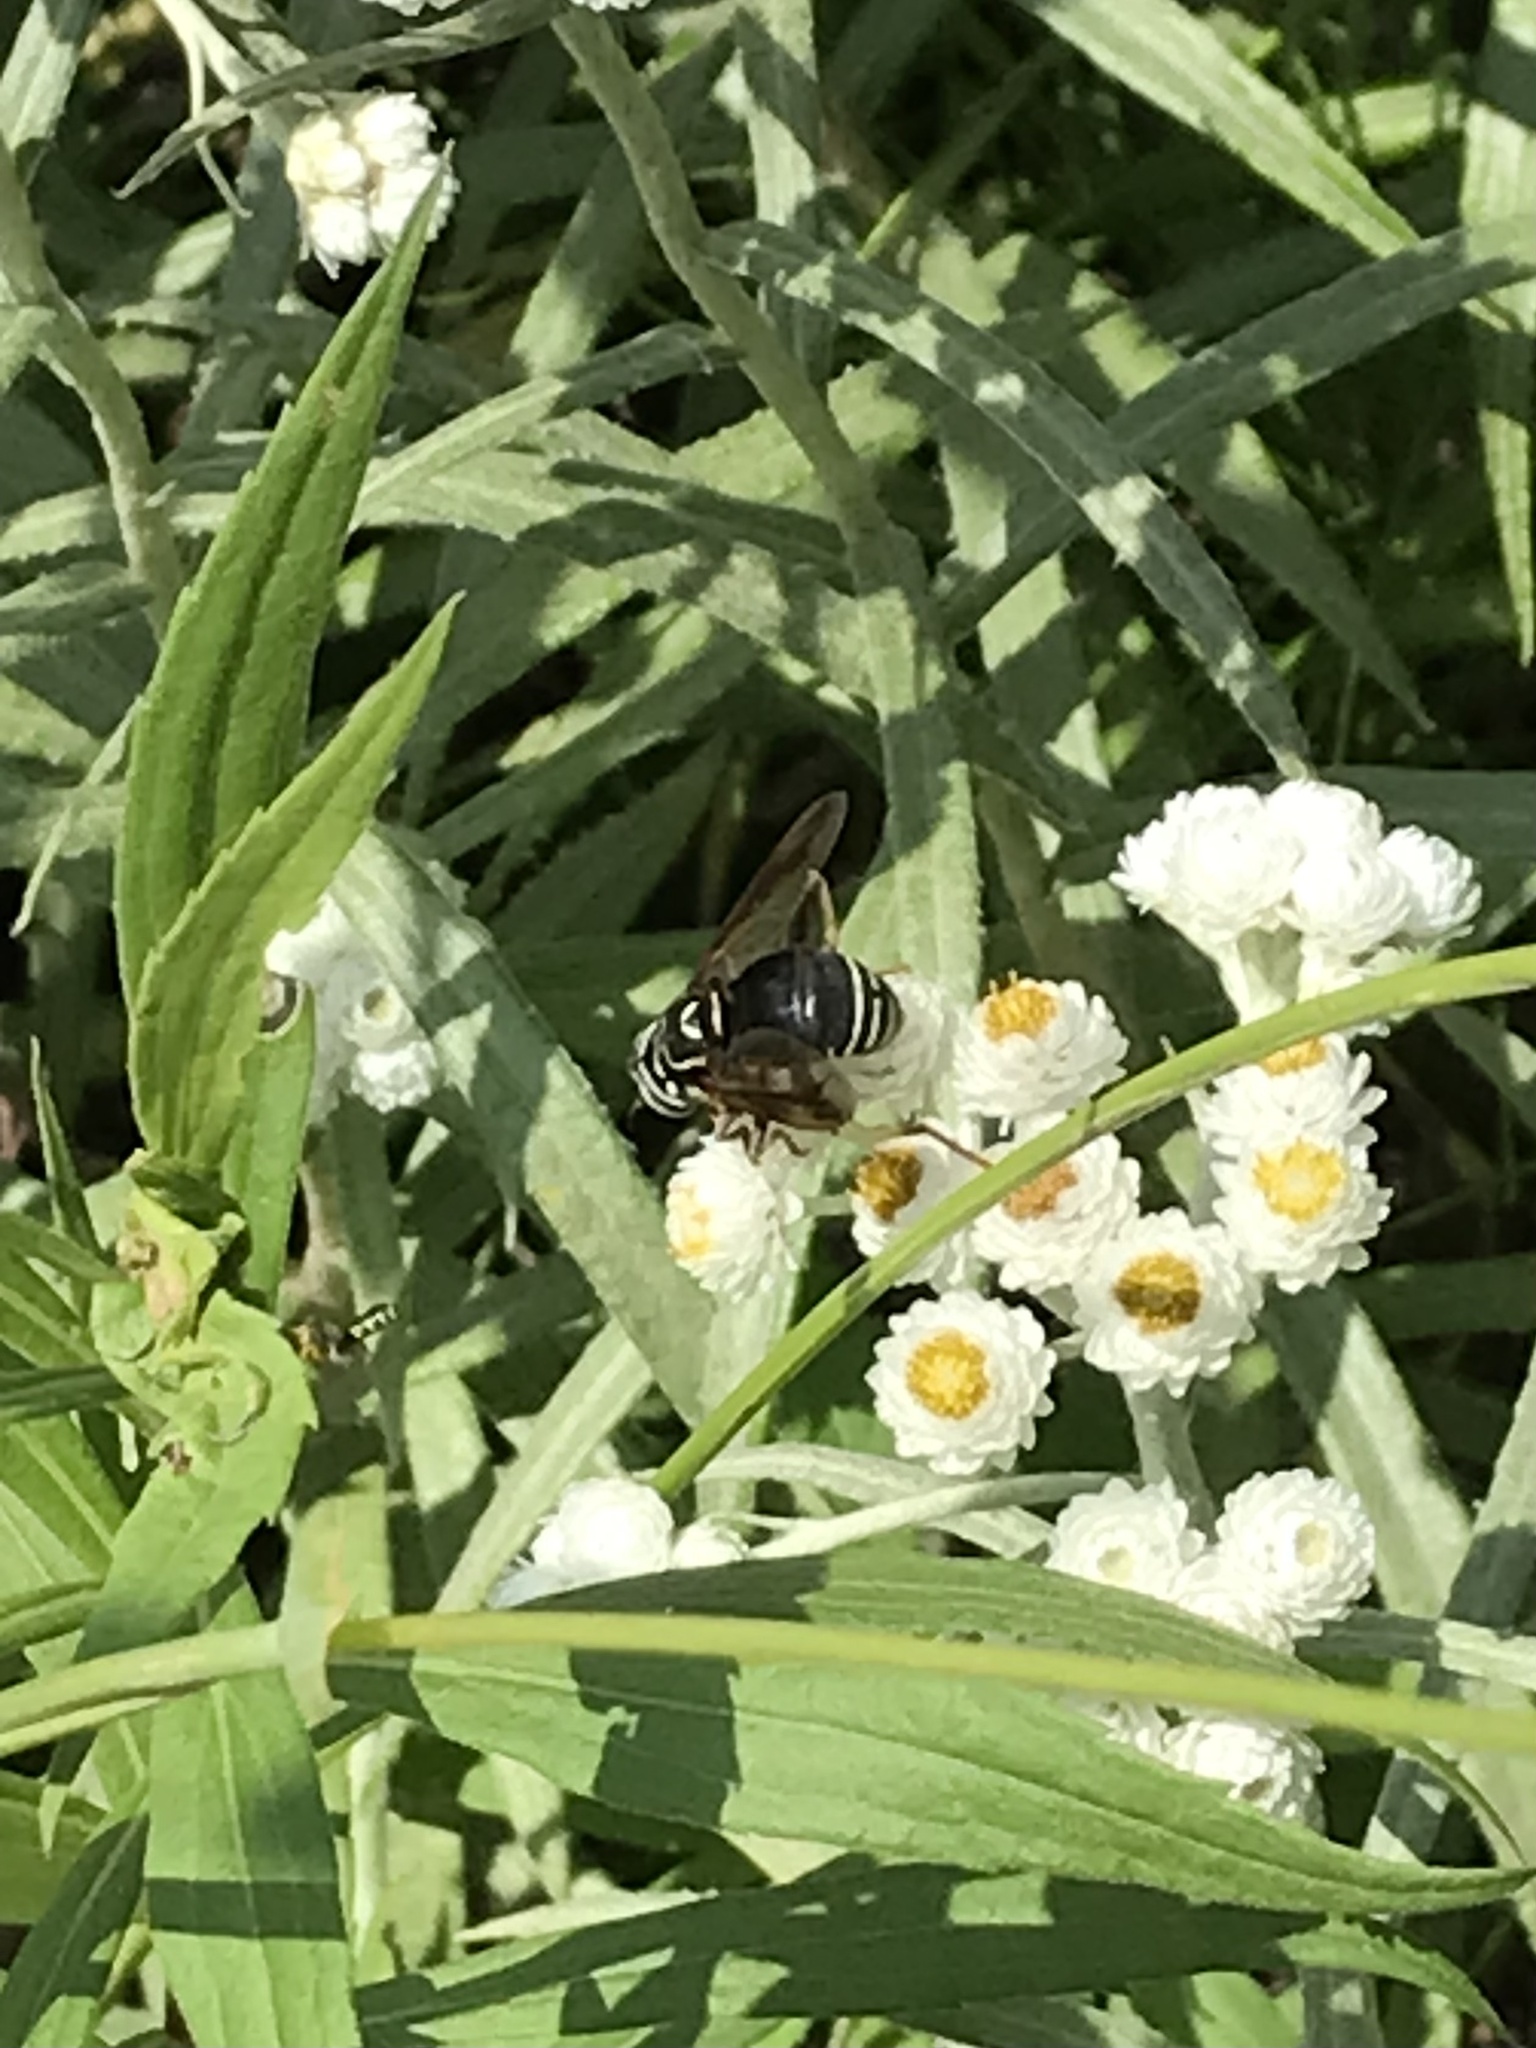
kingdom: Animalia
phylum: Arthropoda
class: Insecta
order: Diptera
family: Syrphidae
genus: Spilomyia
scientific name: Spilomyia fusca
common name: Bald-faced hornet fly
